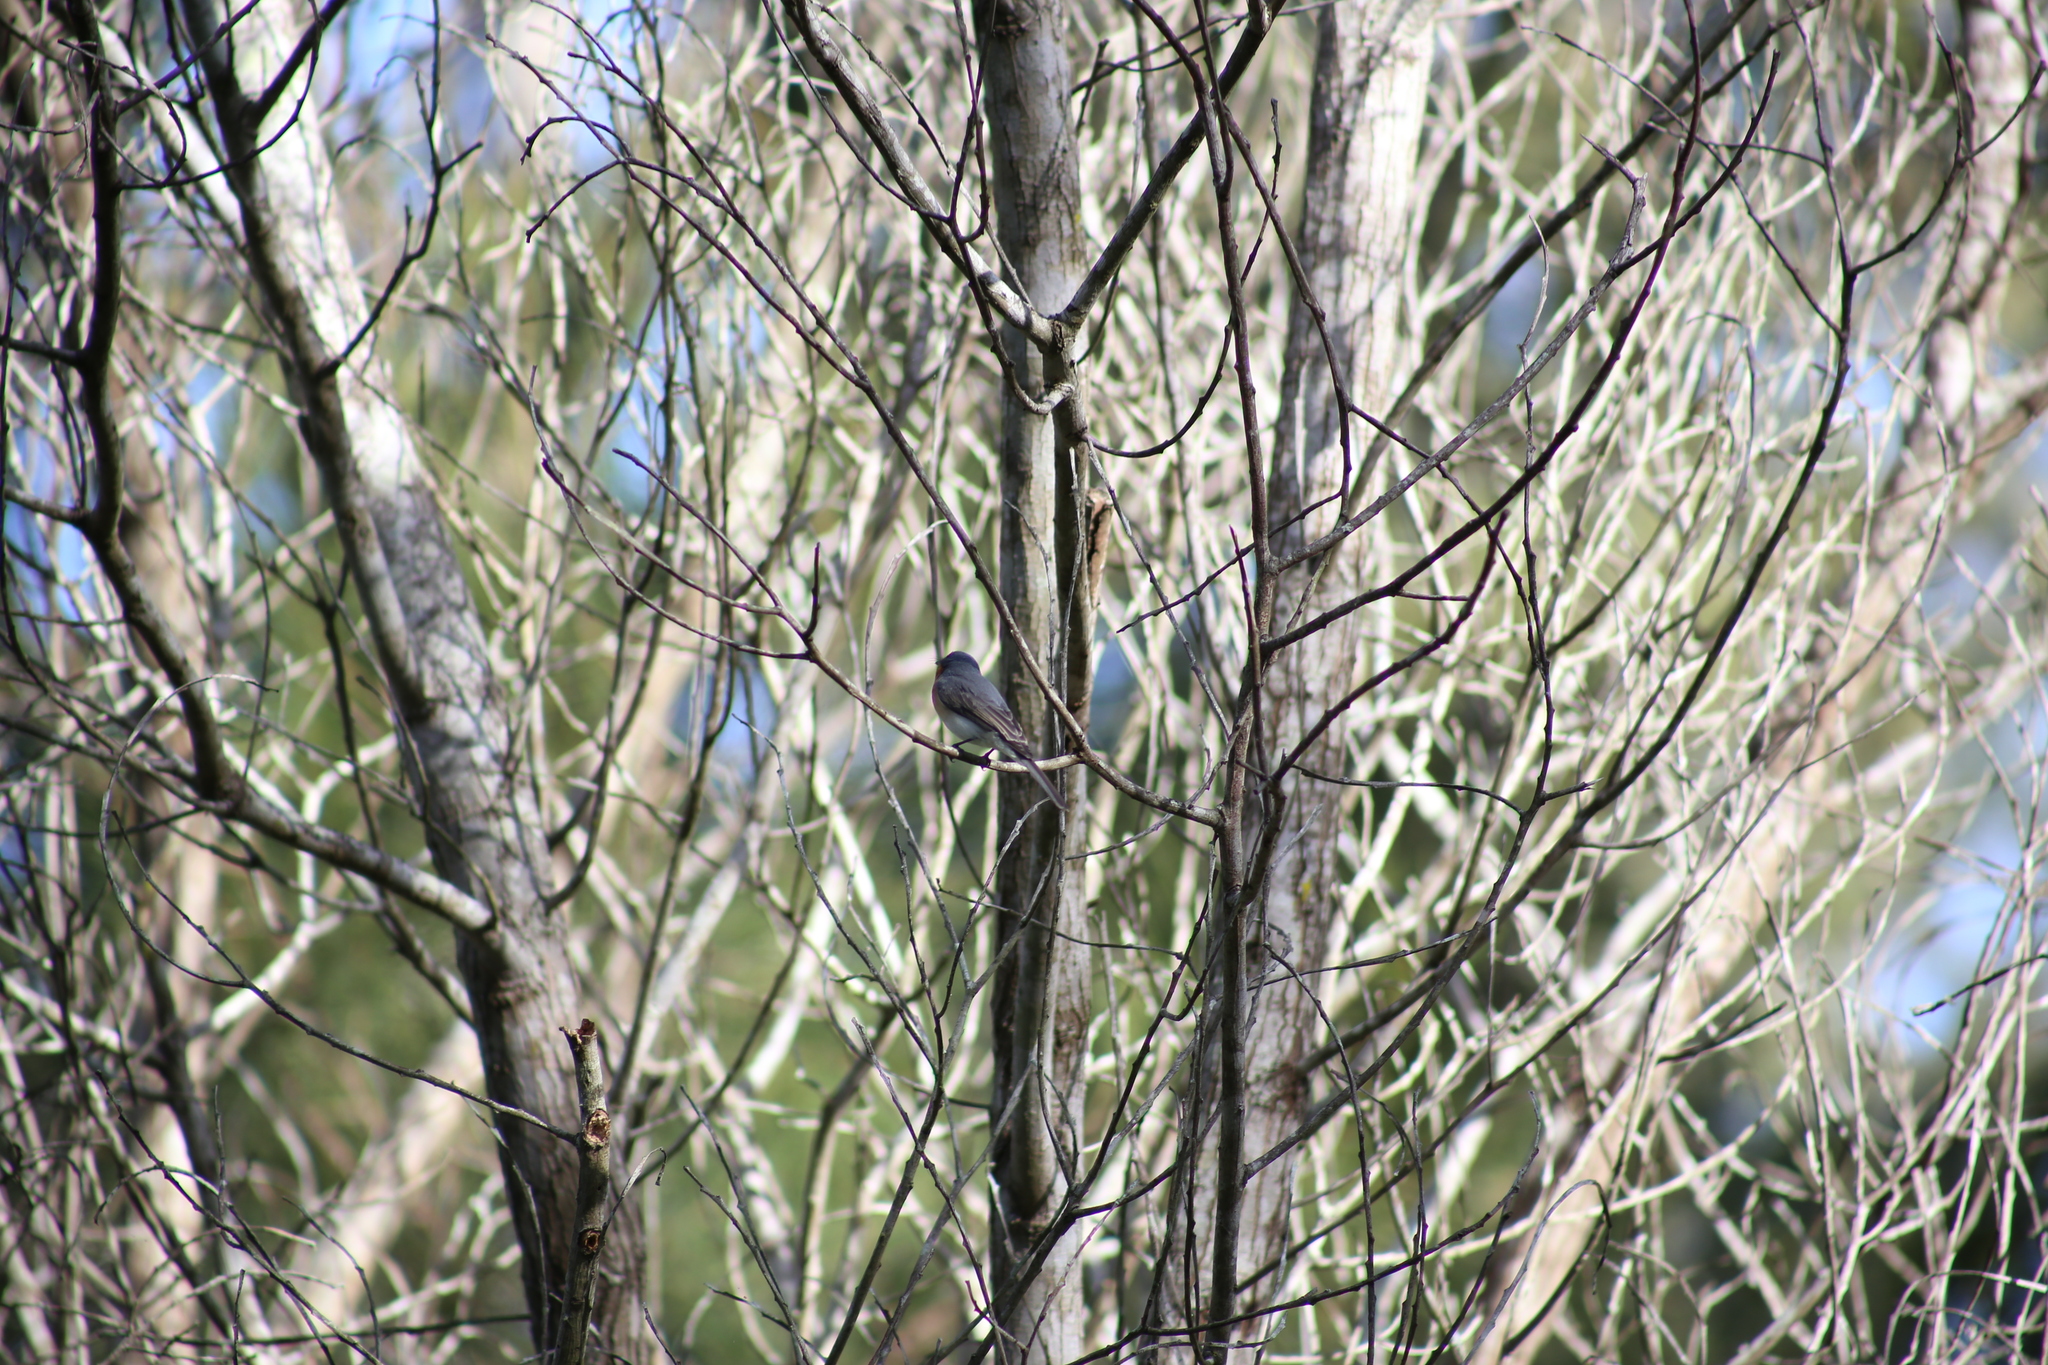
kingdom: Animalia
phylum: Chordata
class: Aves
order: Passeriformes
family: Monarchidae
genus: Myiagra
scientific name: Myiagra rubecula
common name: Leaden flycatcher
